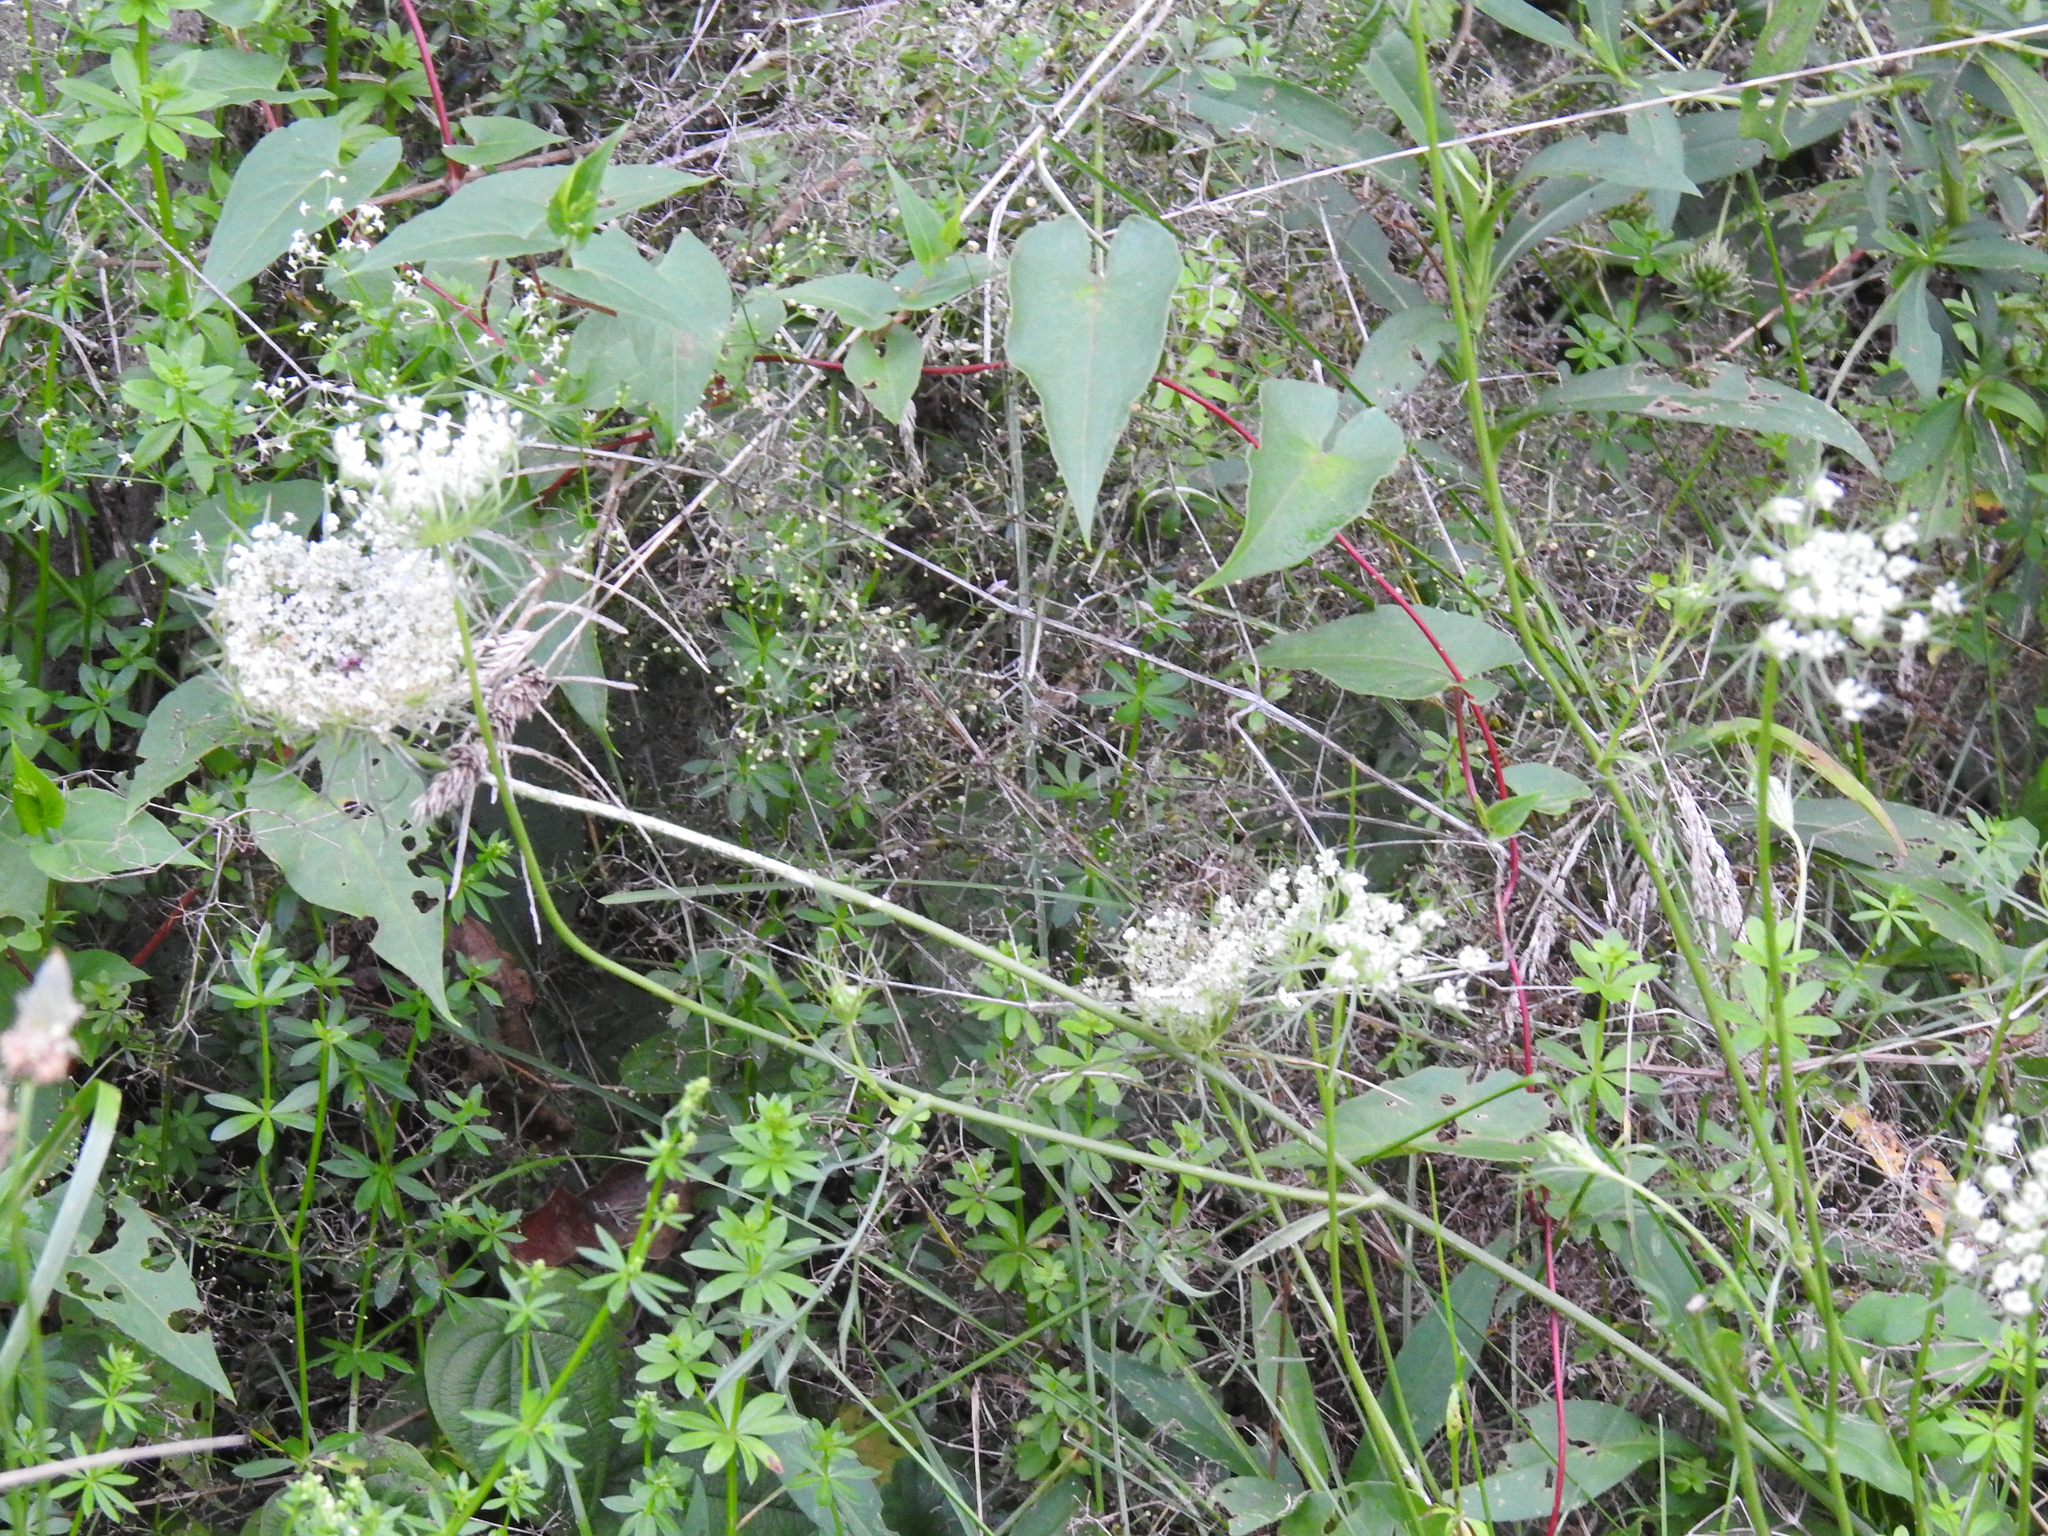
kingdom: Plantae
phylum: Tracheophyta
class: Magnoliopsida
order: Apiales
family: Apiaceae
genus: Daucus
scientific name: Daucus carota
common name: Wild carrot
